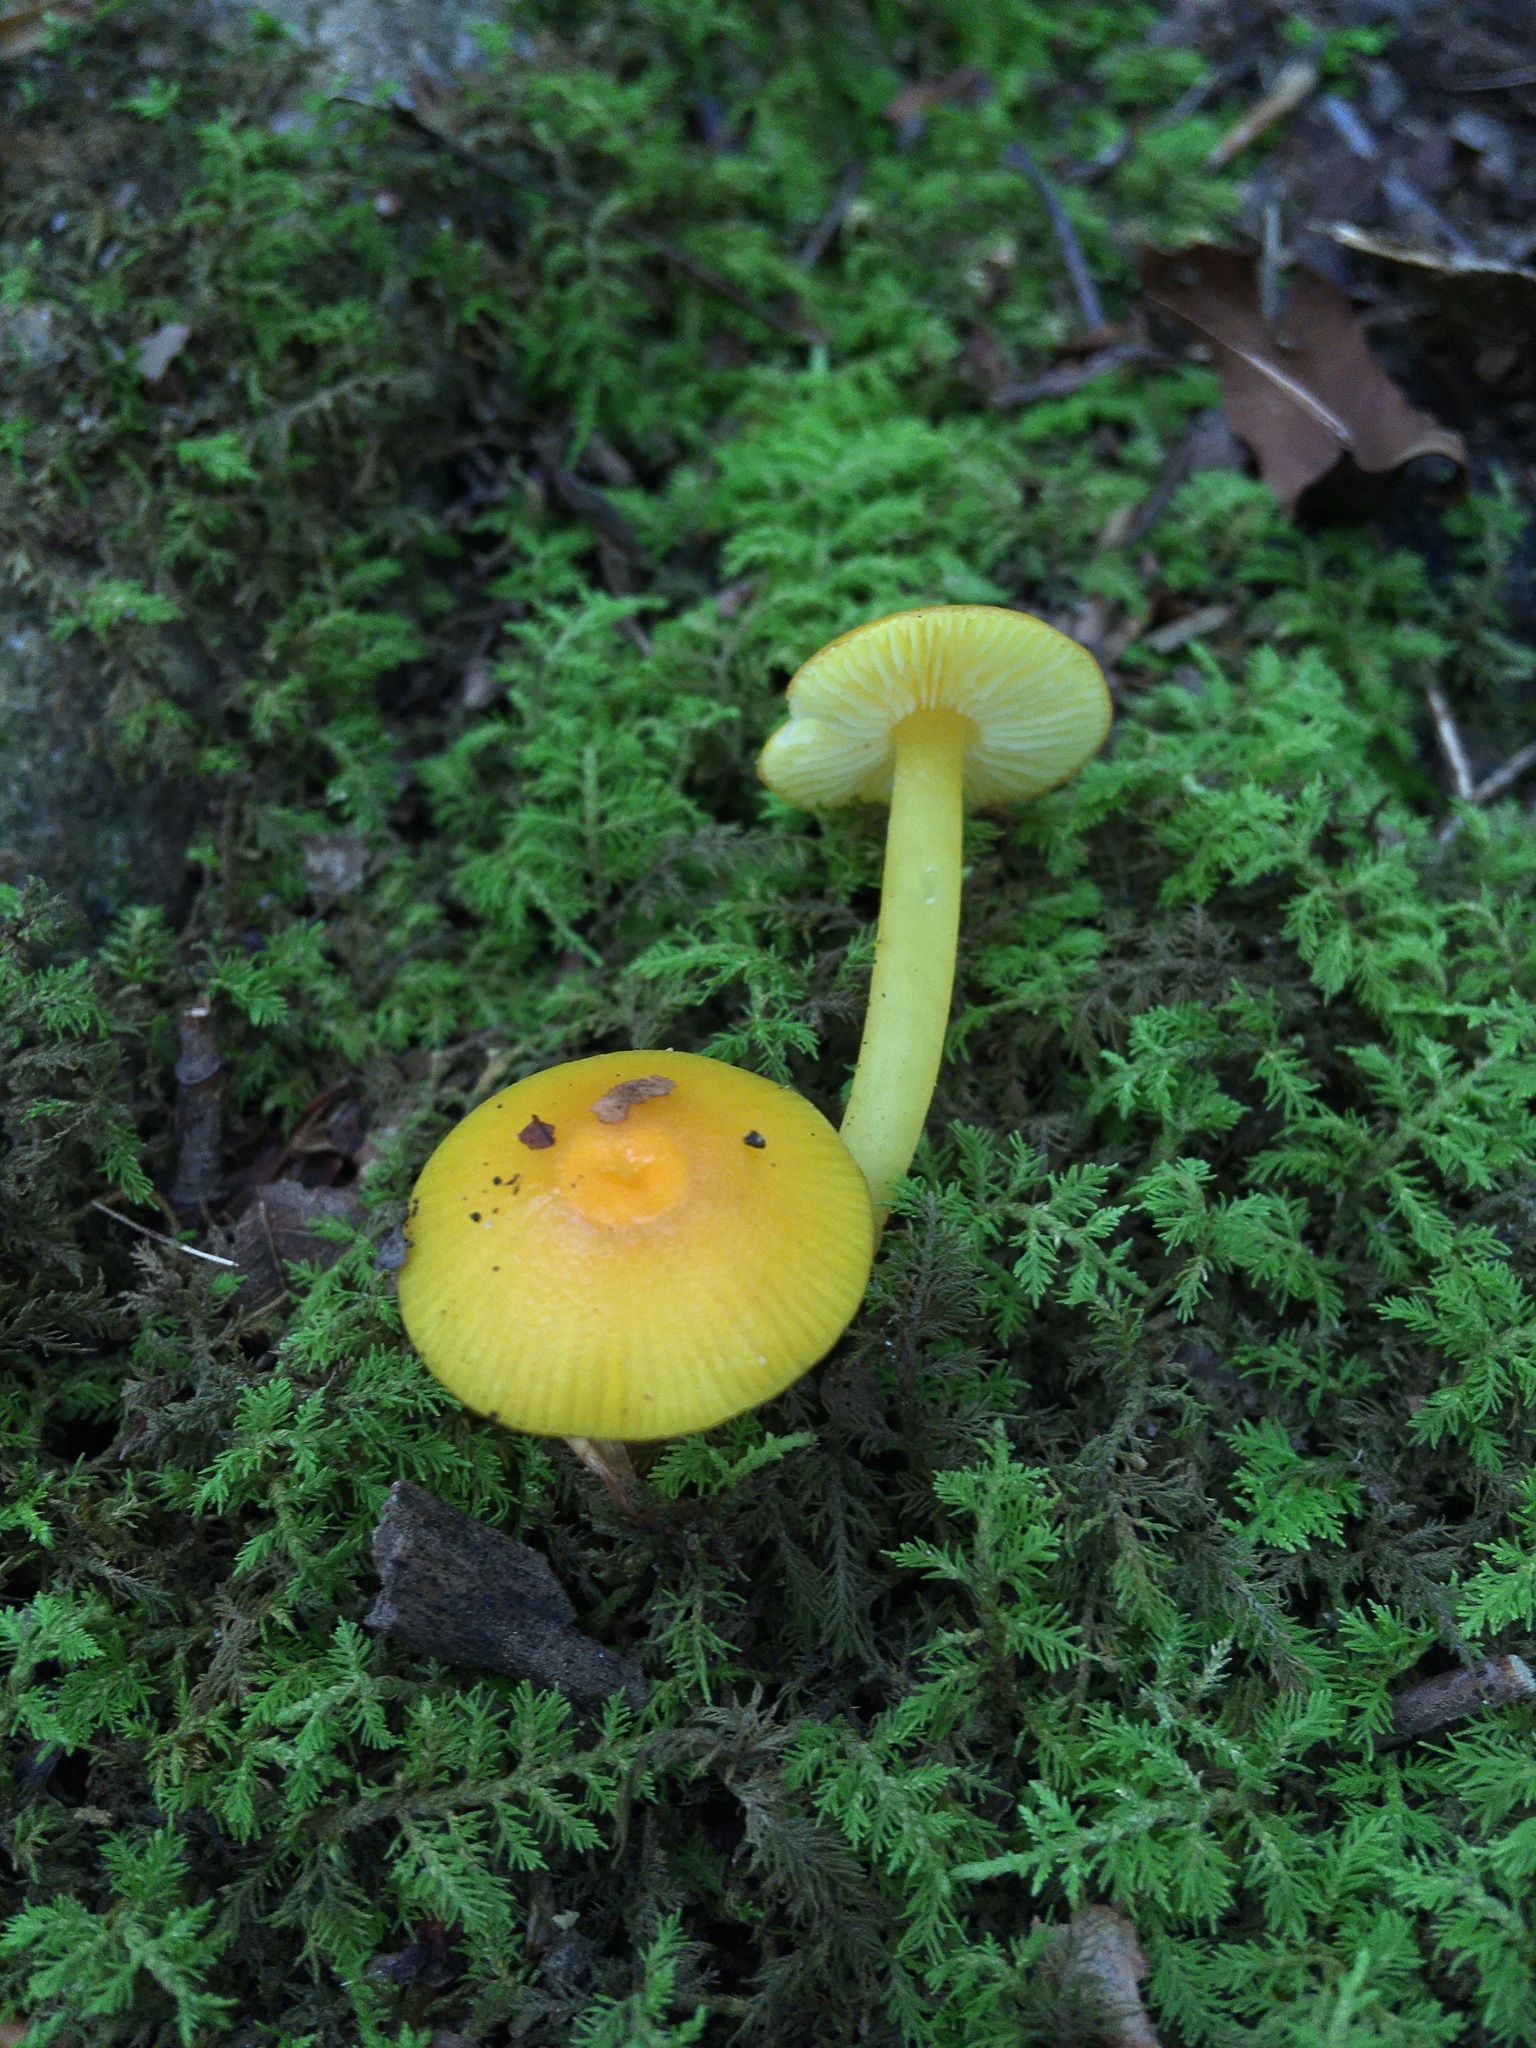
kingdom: Fungi
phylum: Basidiomycota
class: Agaricomycetes
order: Agaricales
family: Hygrophoraceae
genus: Hygrocybe
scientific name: Hygrocybe chlorophana
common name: Golden waxcap
